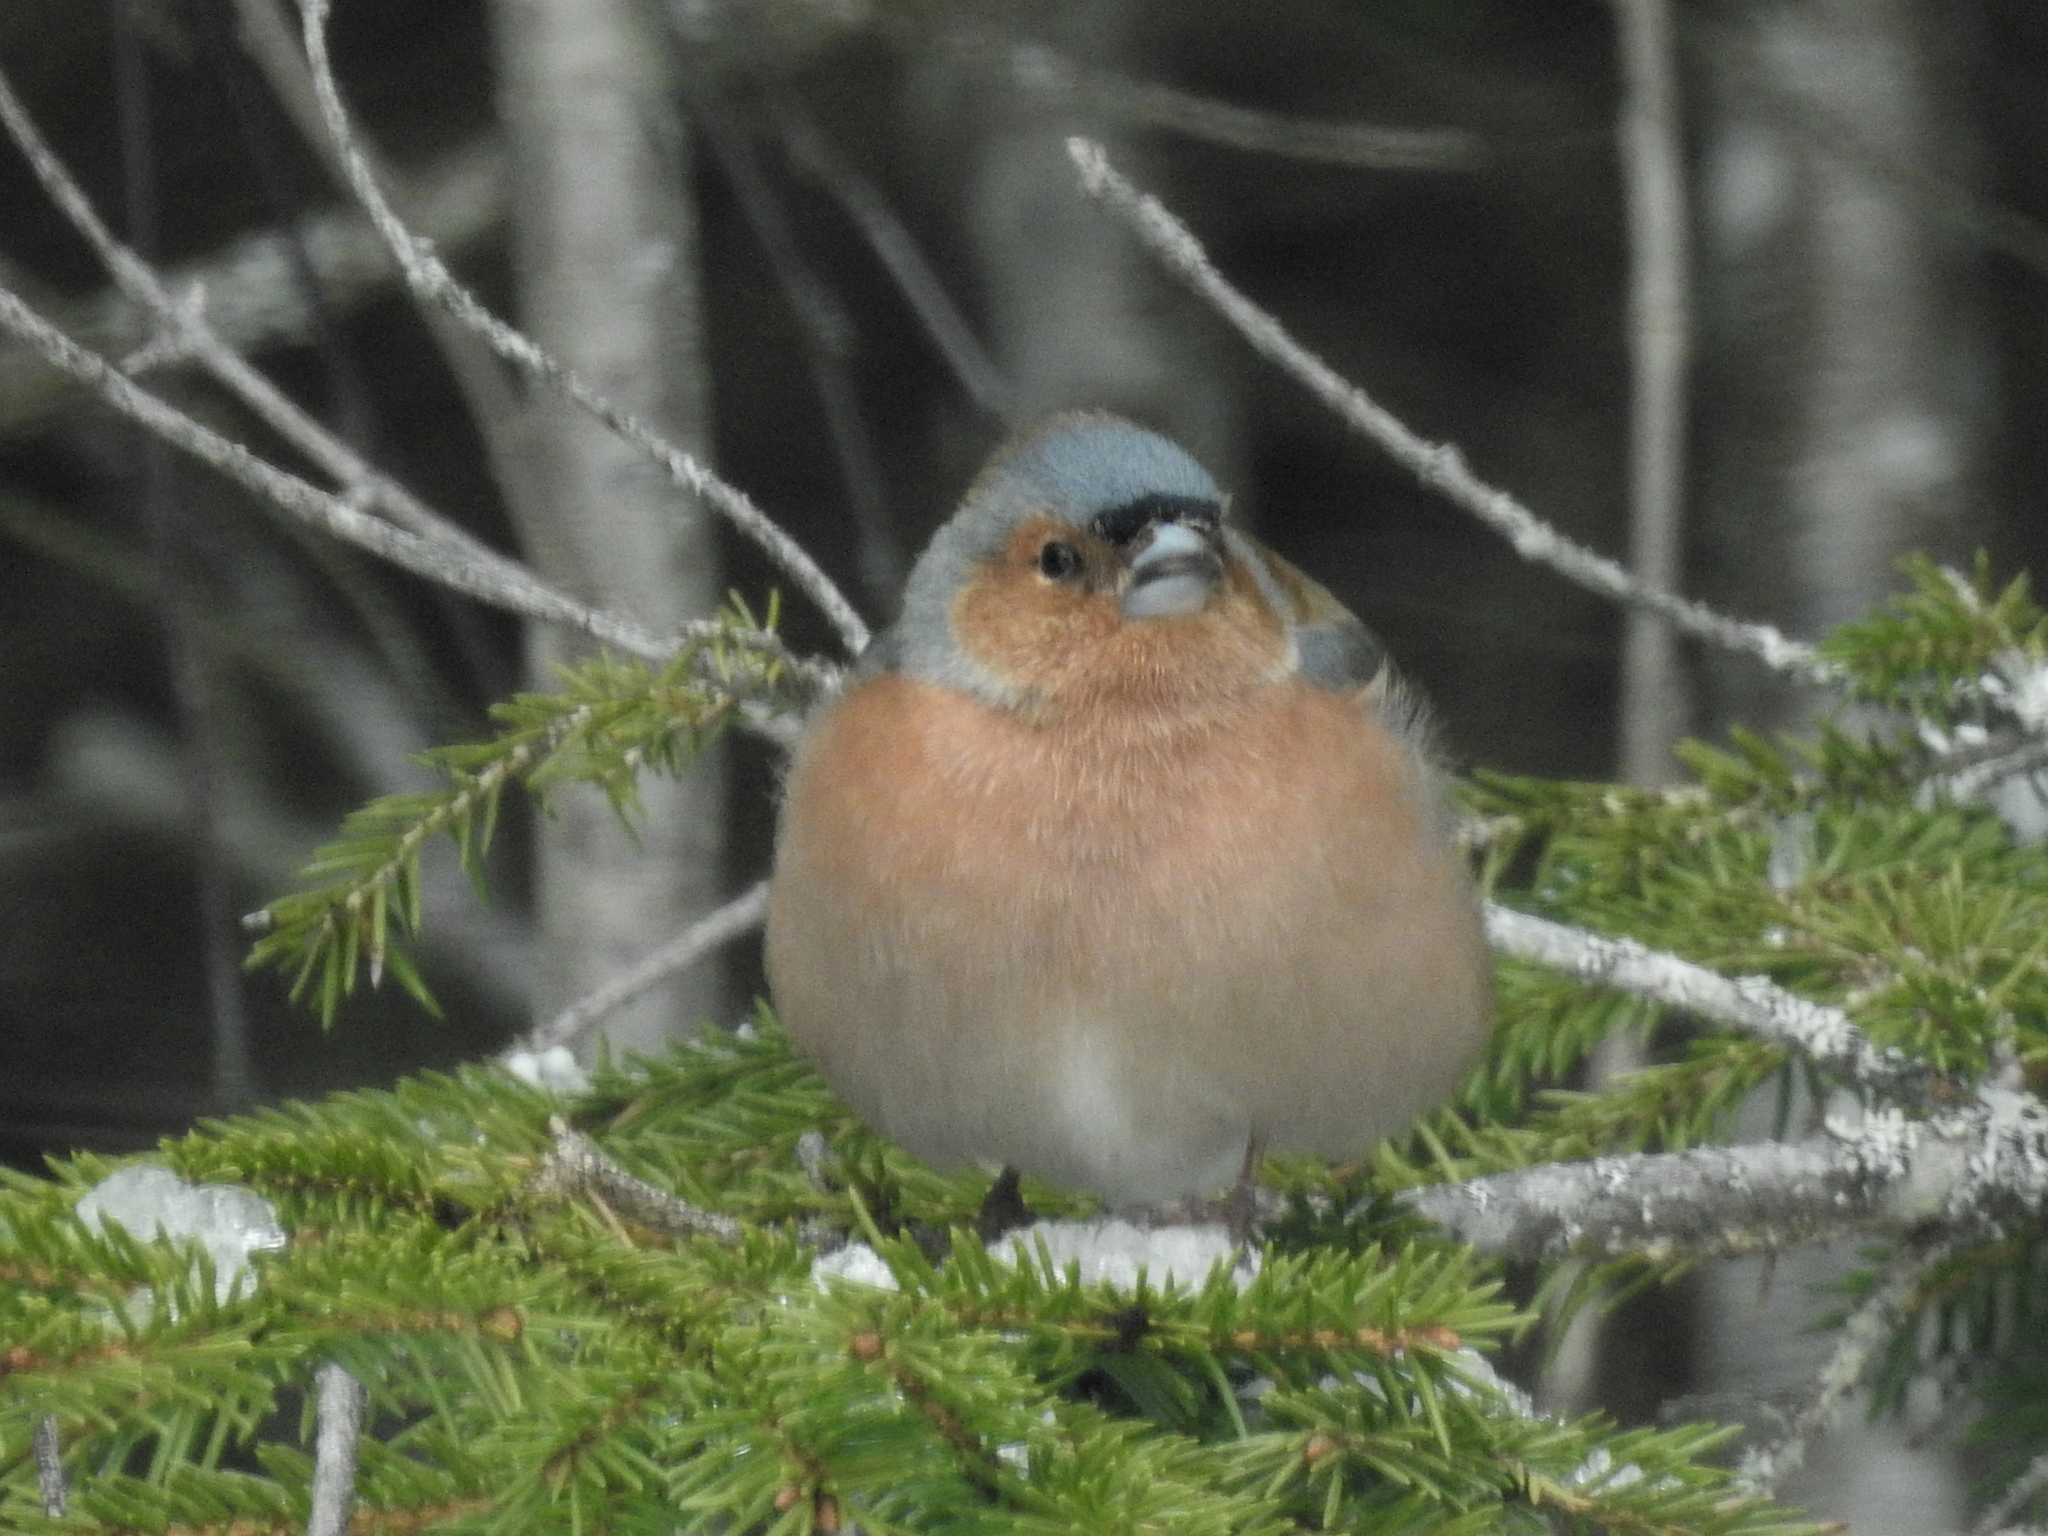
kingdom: Animalia
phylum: Chordata
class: Aves
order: Passeriformes
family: Fringillidae
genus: Fringilla
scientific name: Fringilla coelebs
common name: Common chaffinch
